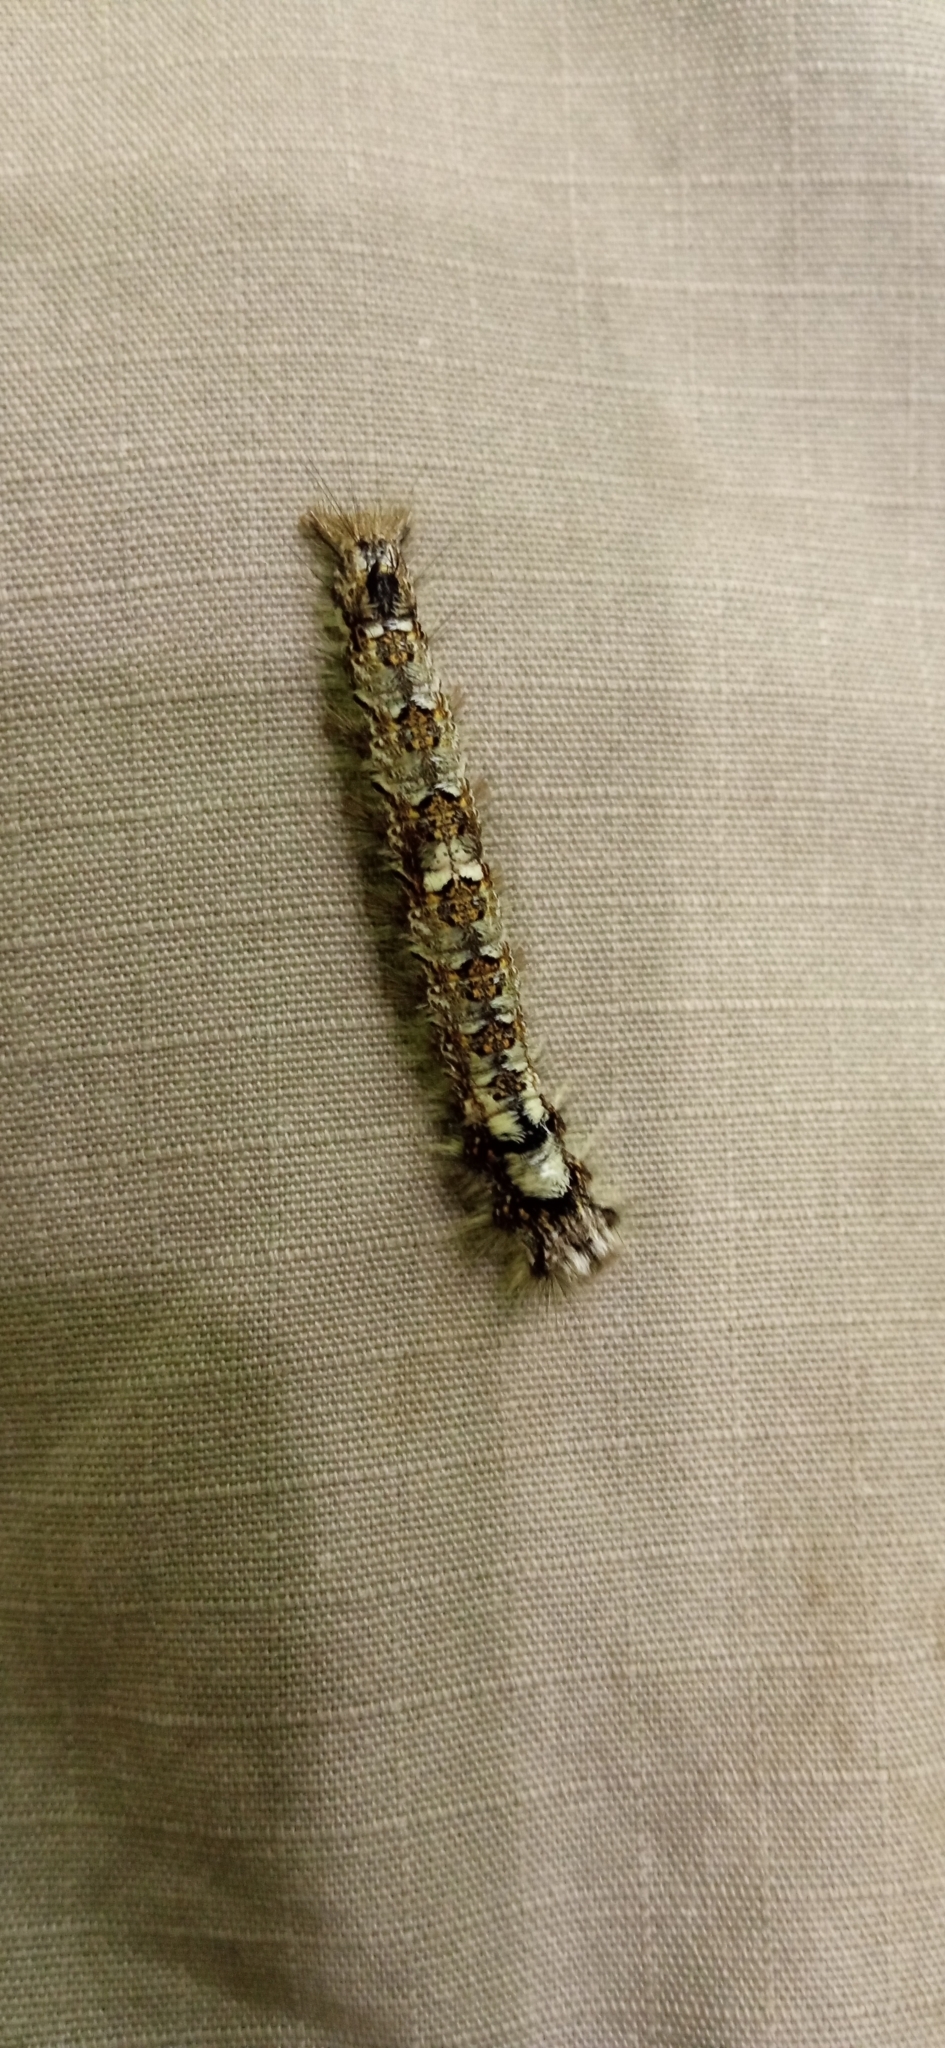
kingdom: Animalia
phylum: Arthropoda
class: Insecta
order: Lepidoptera
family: Lasiocampidae
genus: Dendrolimus
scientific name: Dendrolimus pini
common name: Pine-tree lappet
